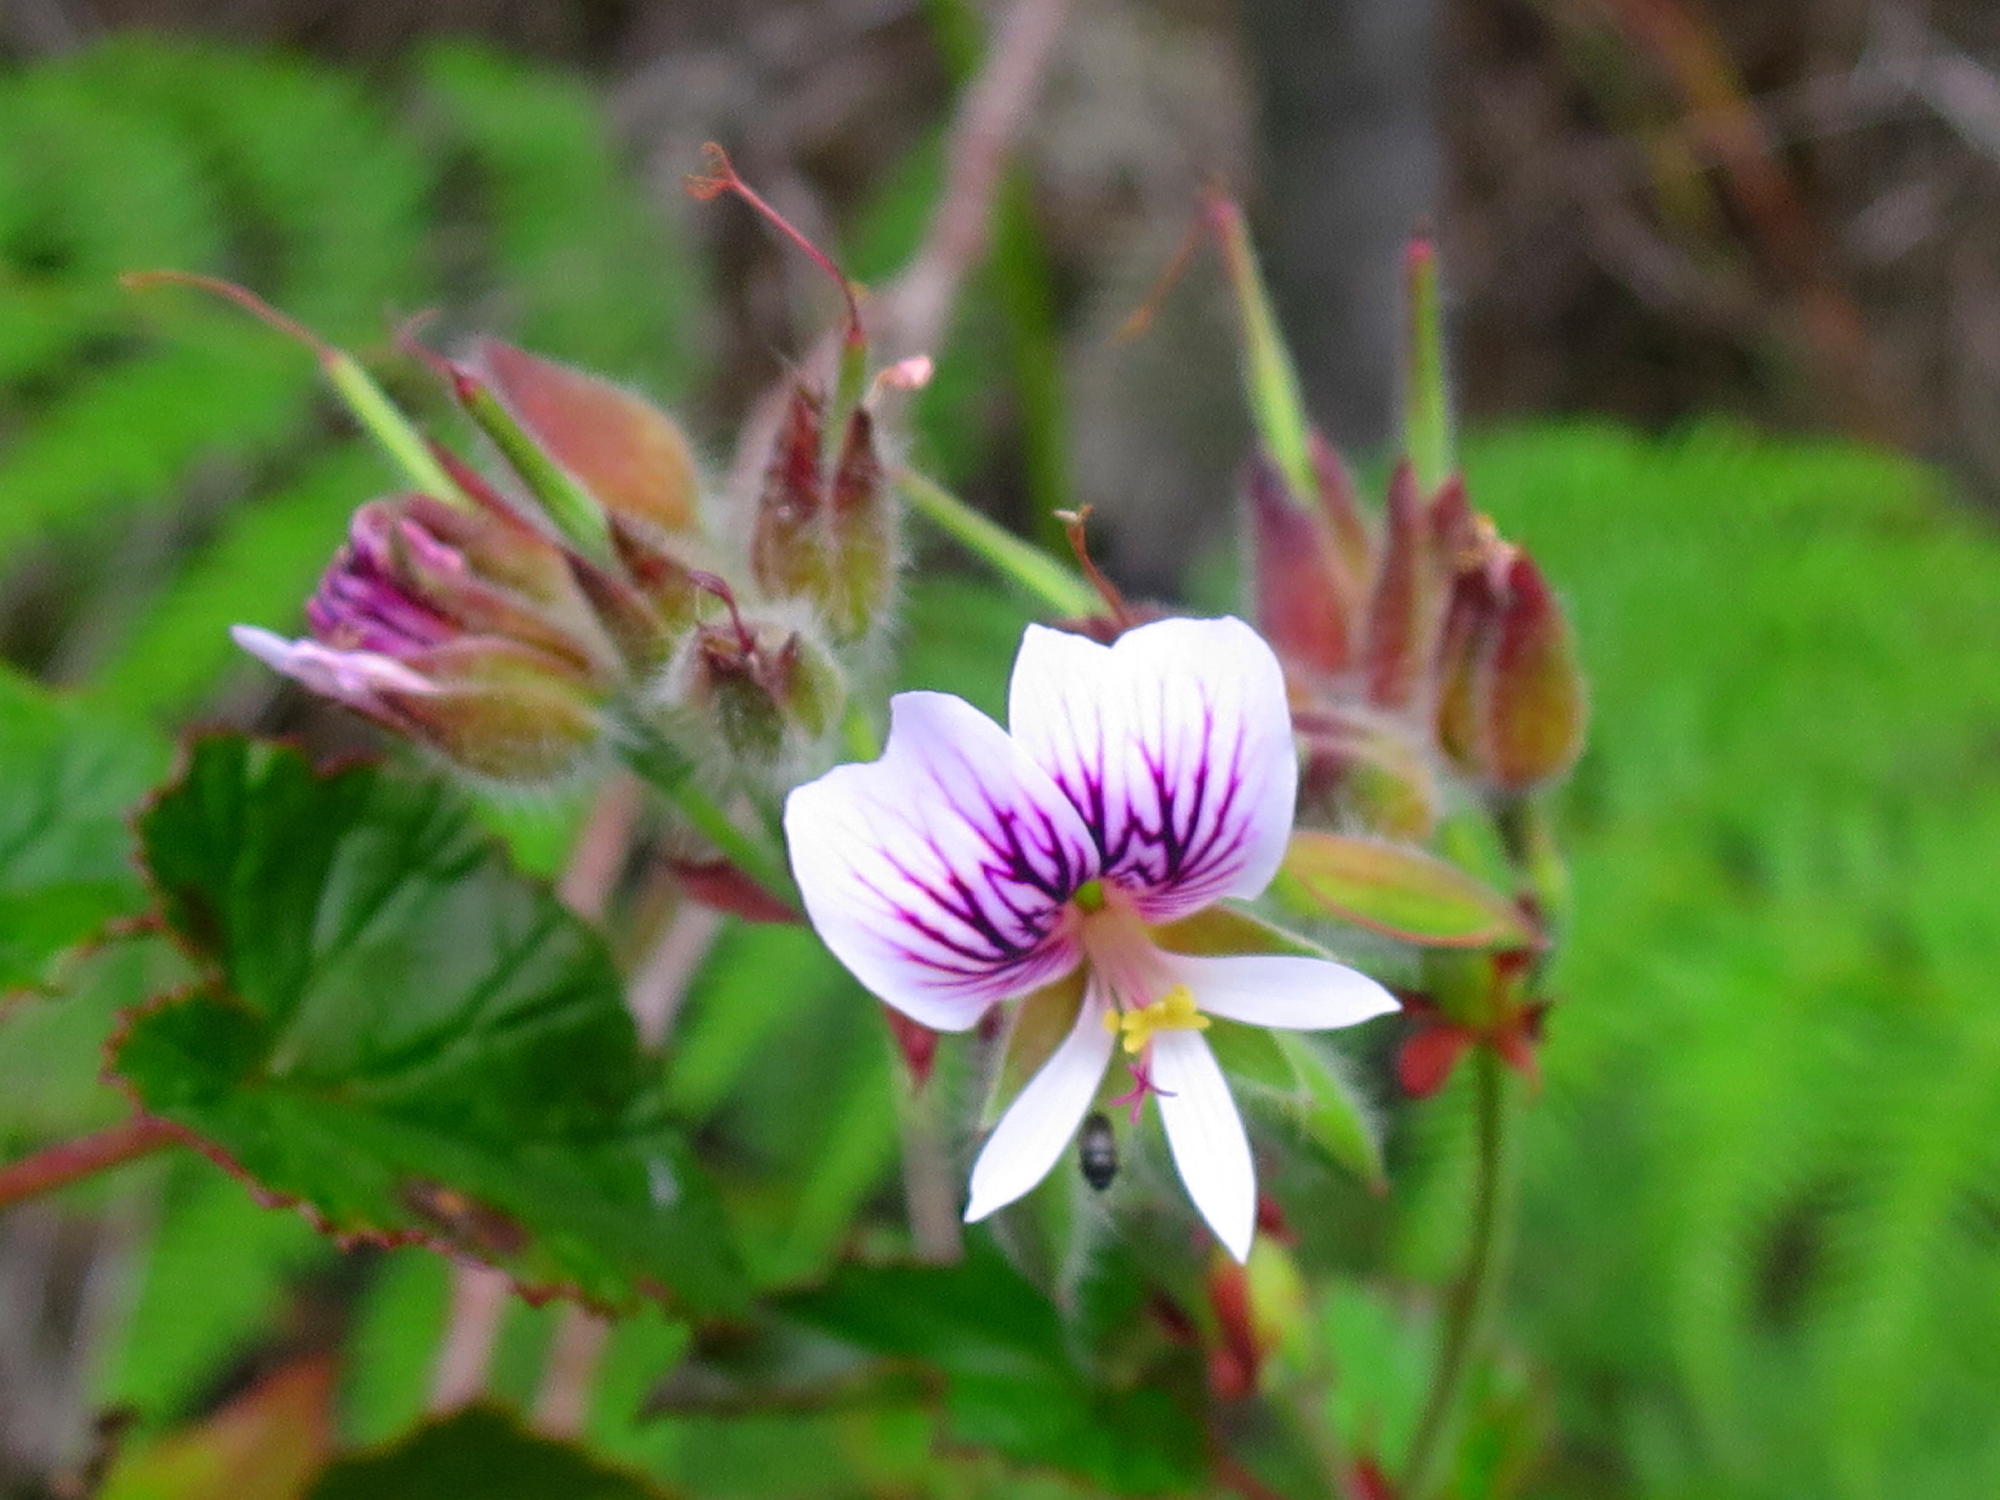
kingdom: Plantae
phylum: Tracheophyta
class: Magnoliopsida
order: Geraniales
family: Geraniaceae
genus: Pelargonium
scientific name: Pelargonium cordifolium
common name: Heart-leaf pelargonium
